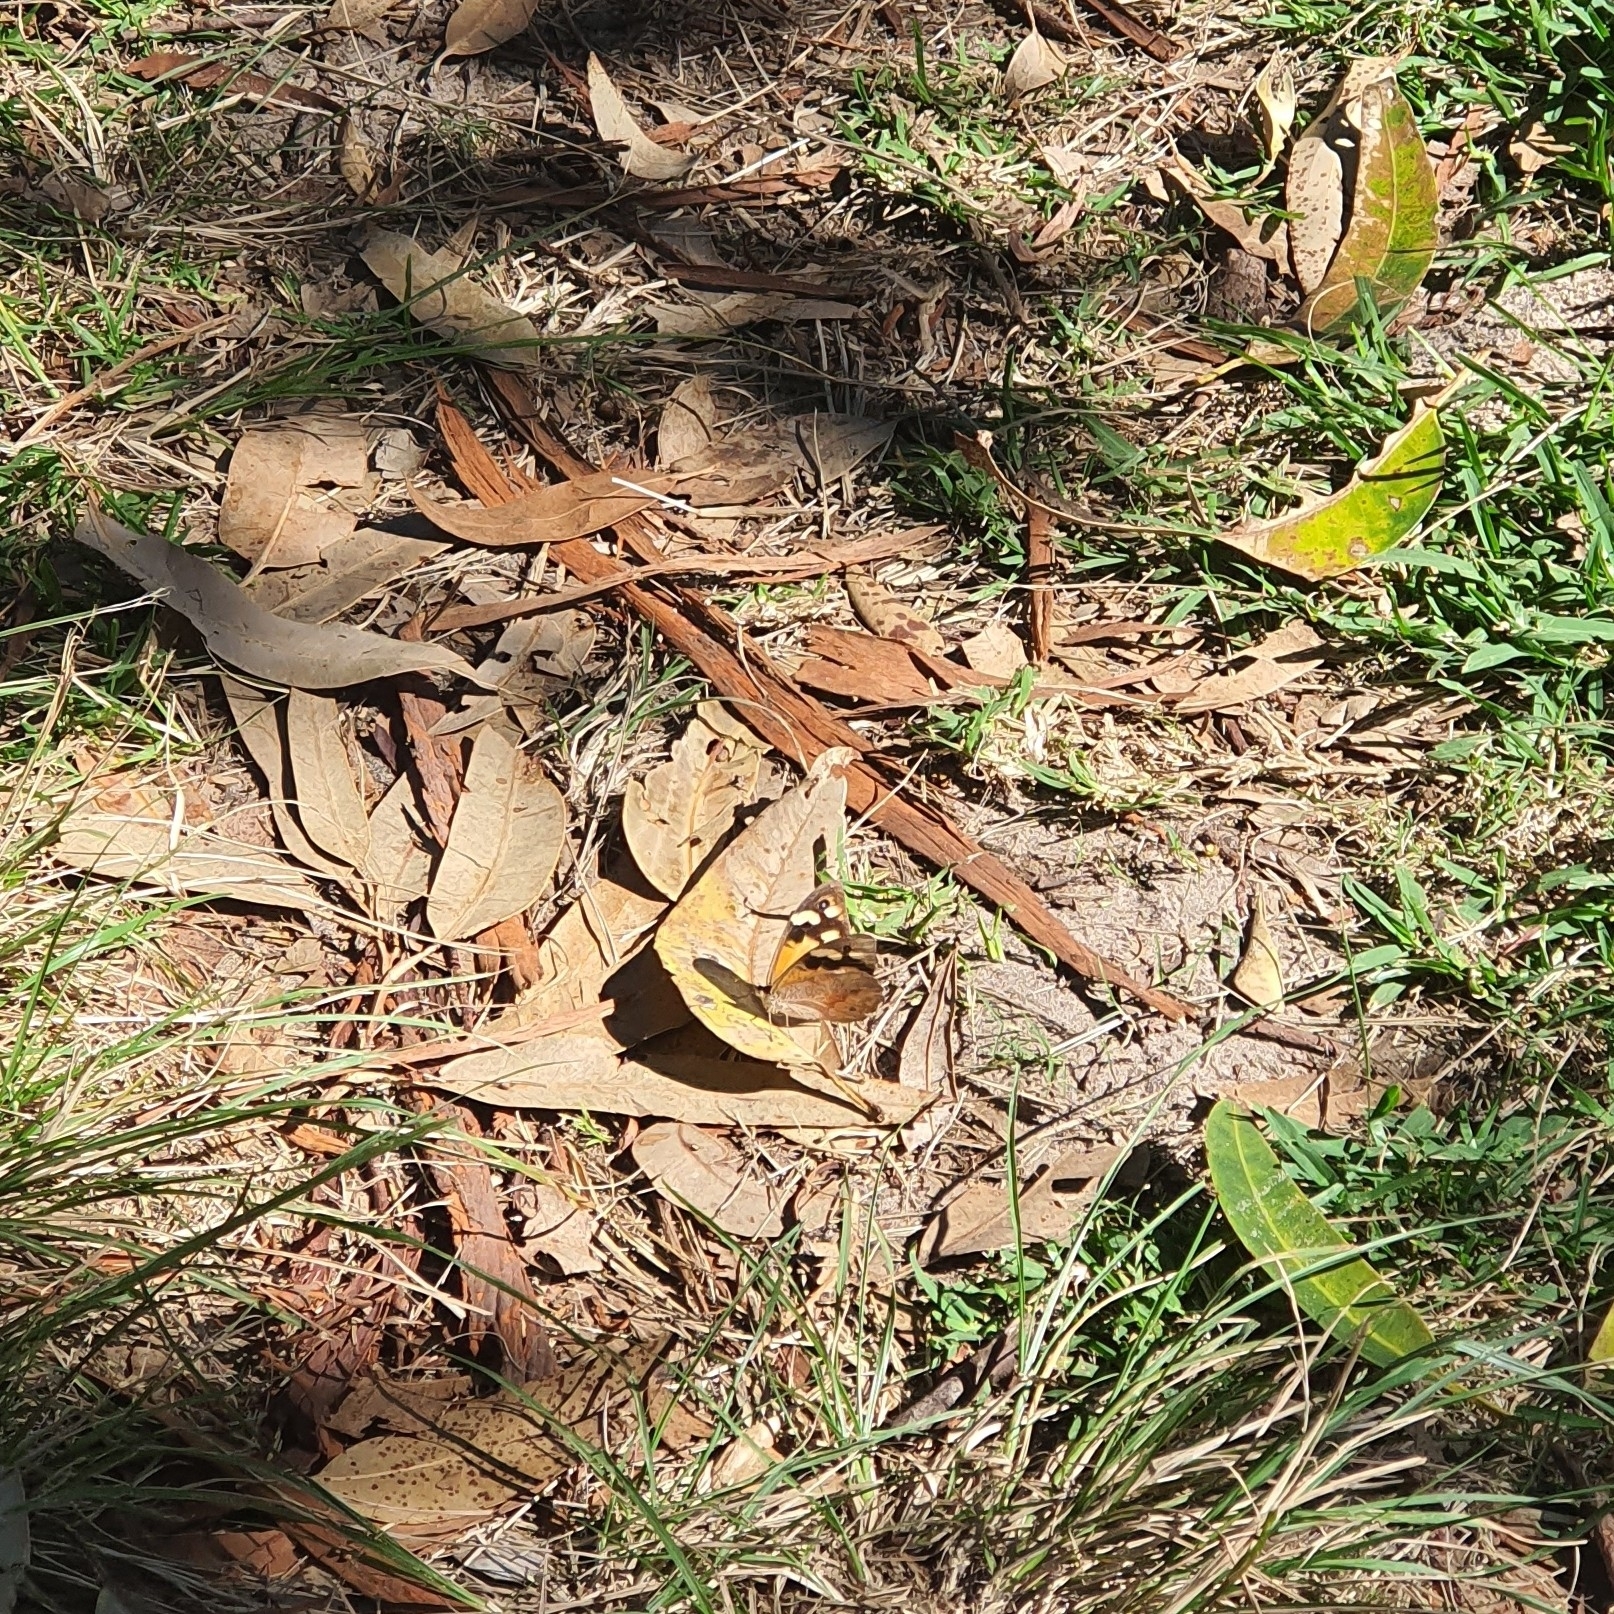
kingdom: Animalia
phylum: Arthropoda
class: Insecta
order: Lepidoptera
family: Nymphalidae
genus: Heteronympha
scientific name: Heteronympha merope
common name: Common brown
